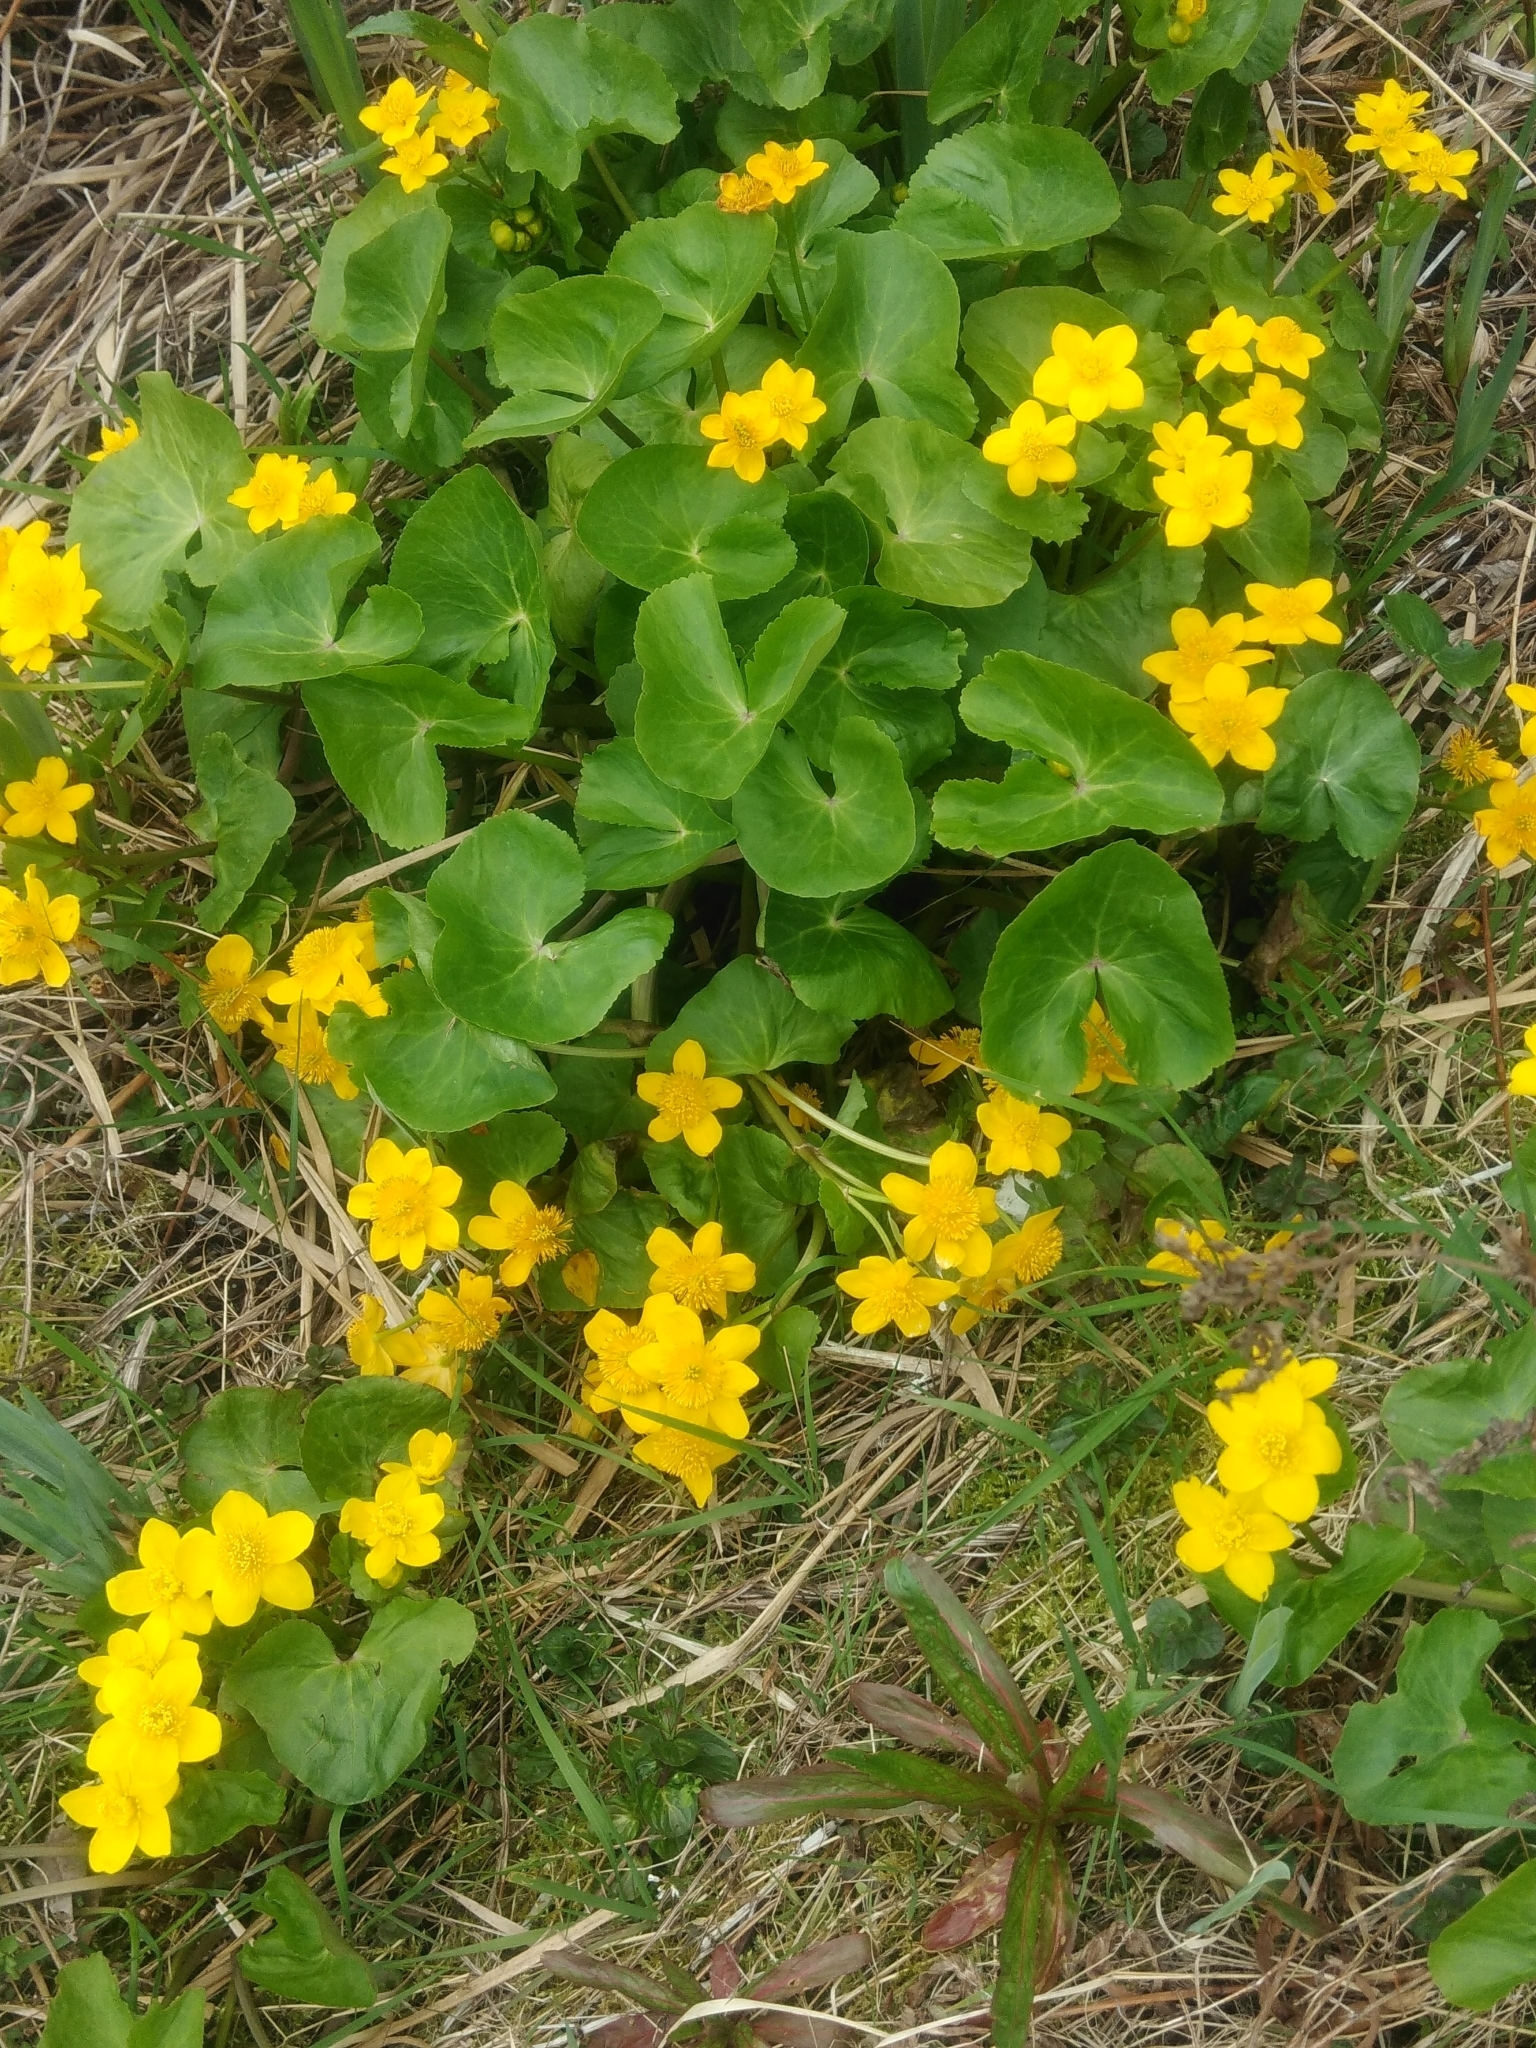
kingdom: Plantae
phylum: Tracheophyta
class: Magnoliopsida
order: Ranunculales
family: Ranunculaceae
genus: Caltha
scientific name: Caltha palustris
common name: Marsh marigold
